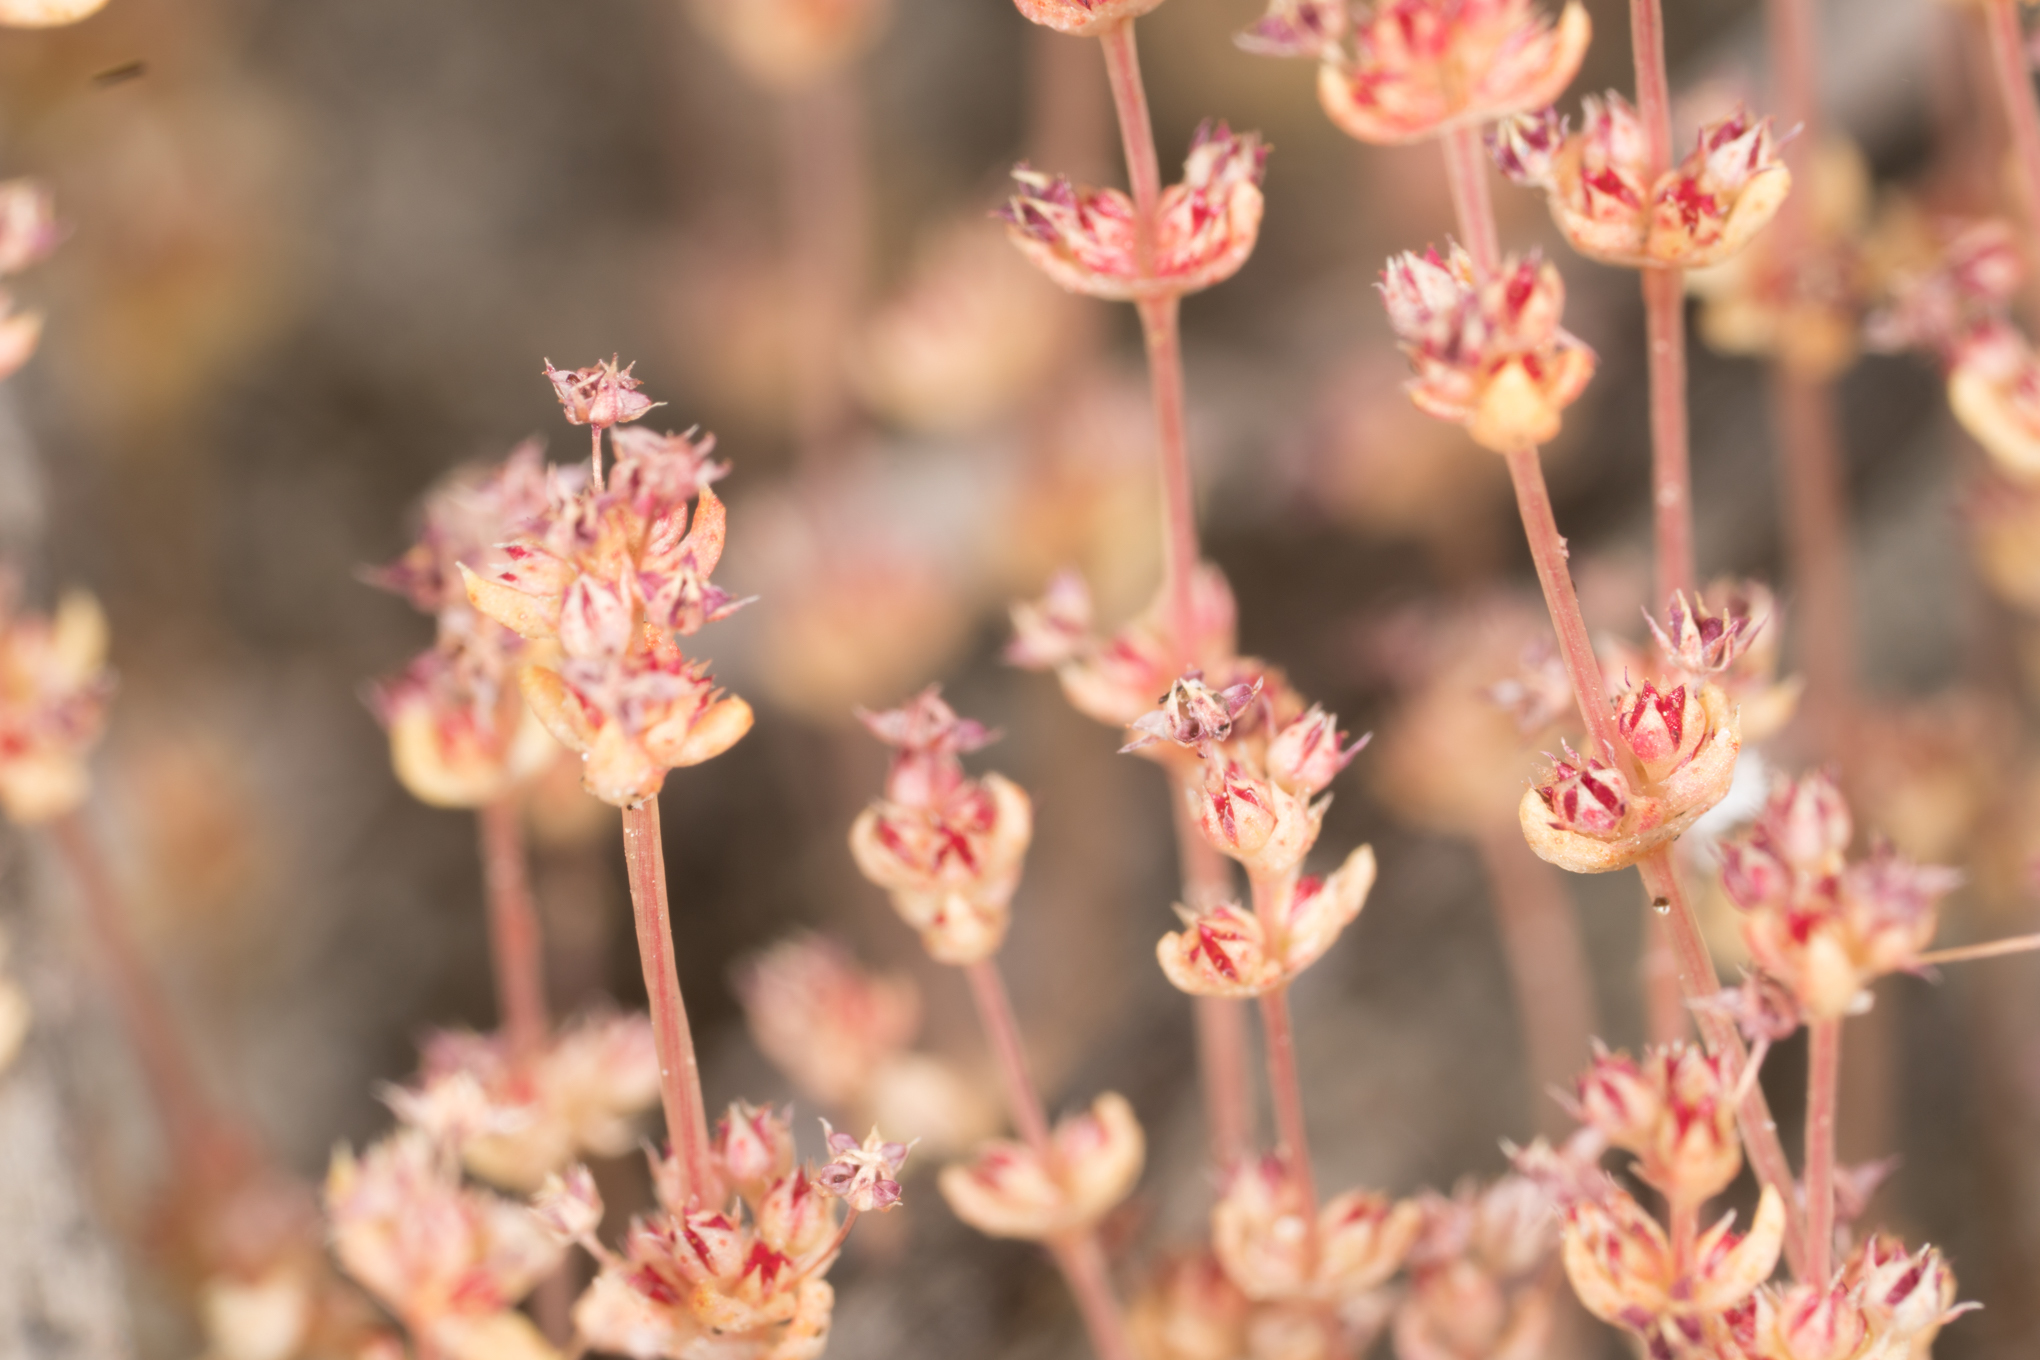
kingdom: Plantae
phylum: Tracheophyta
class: Magnoliopsida
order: Saxifragales
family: Crassulaceae
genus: Crassula
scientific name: Crassula connata
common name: Erect pygmyweed
